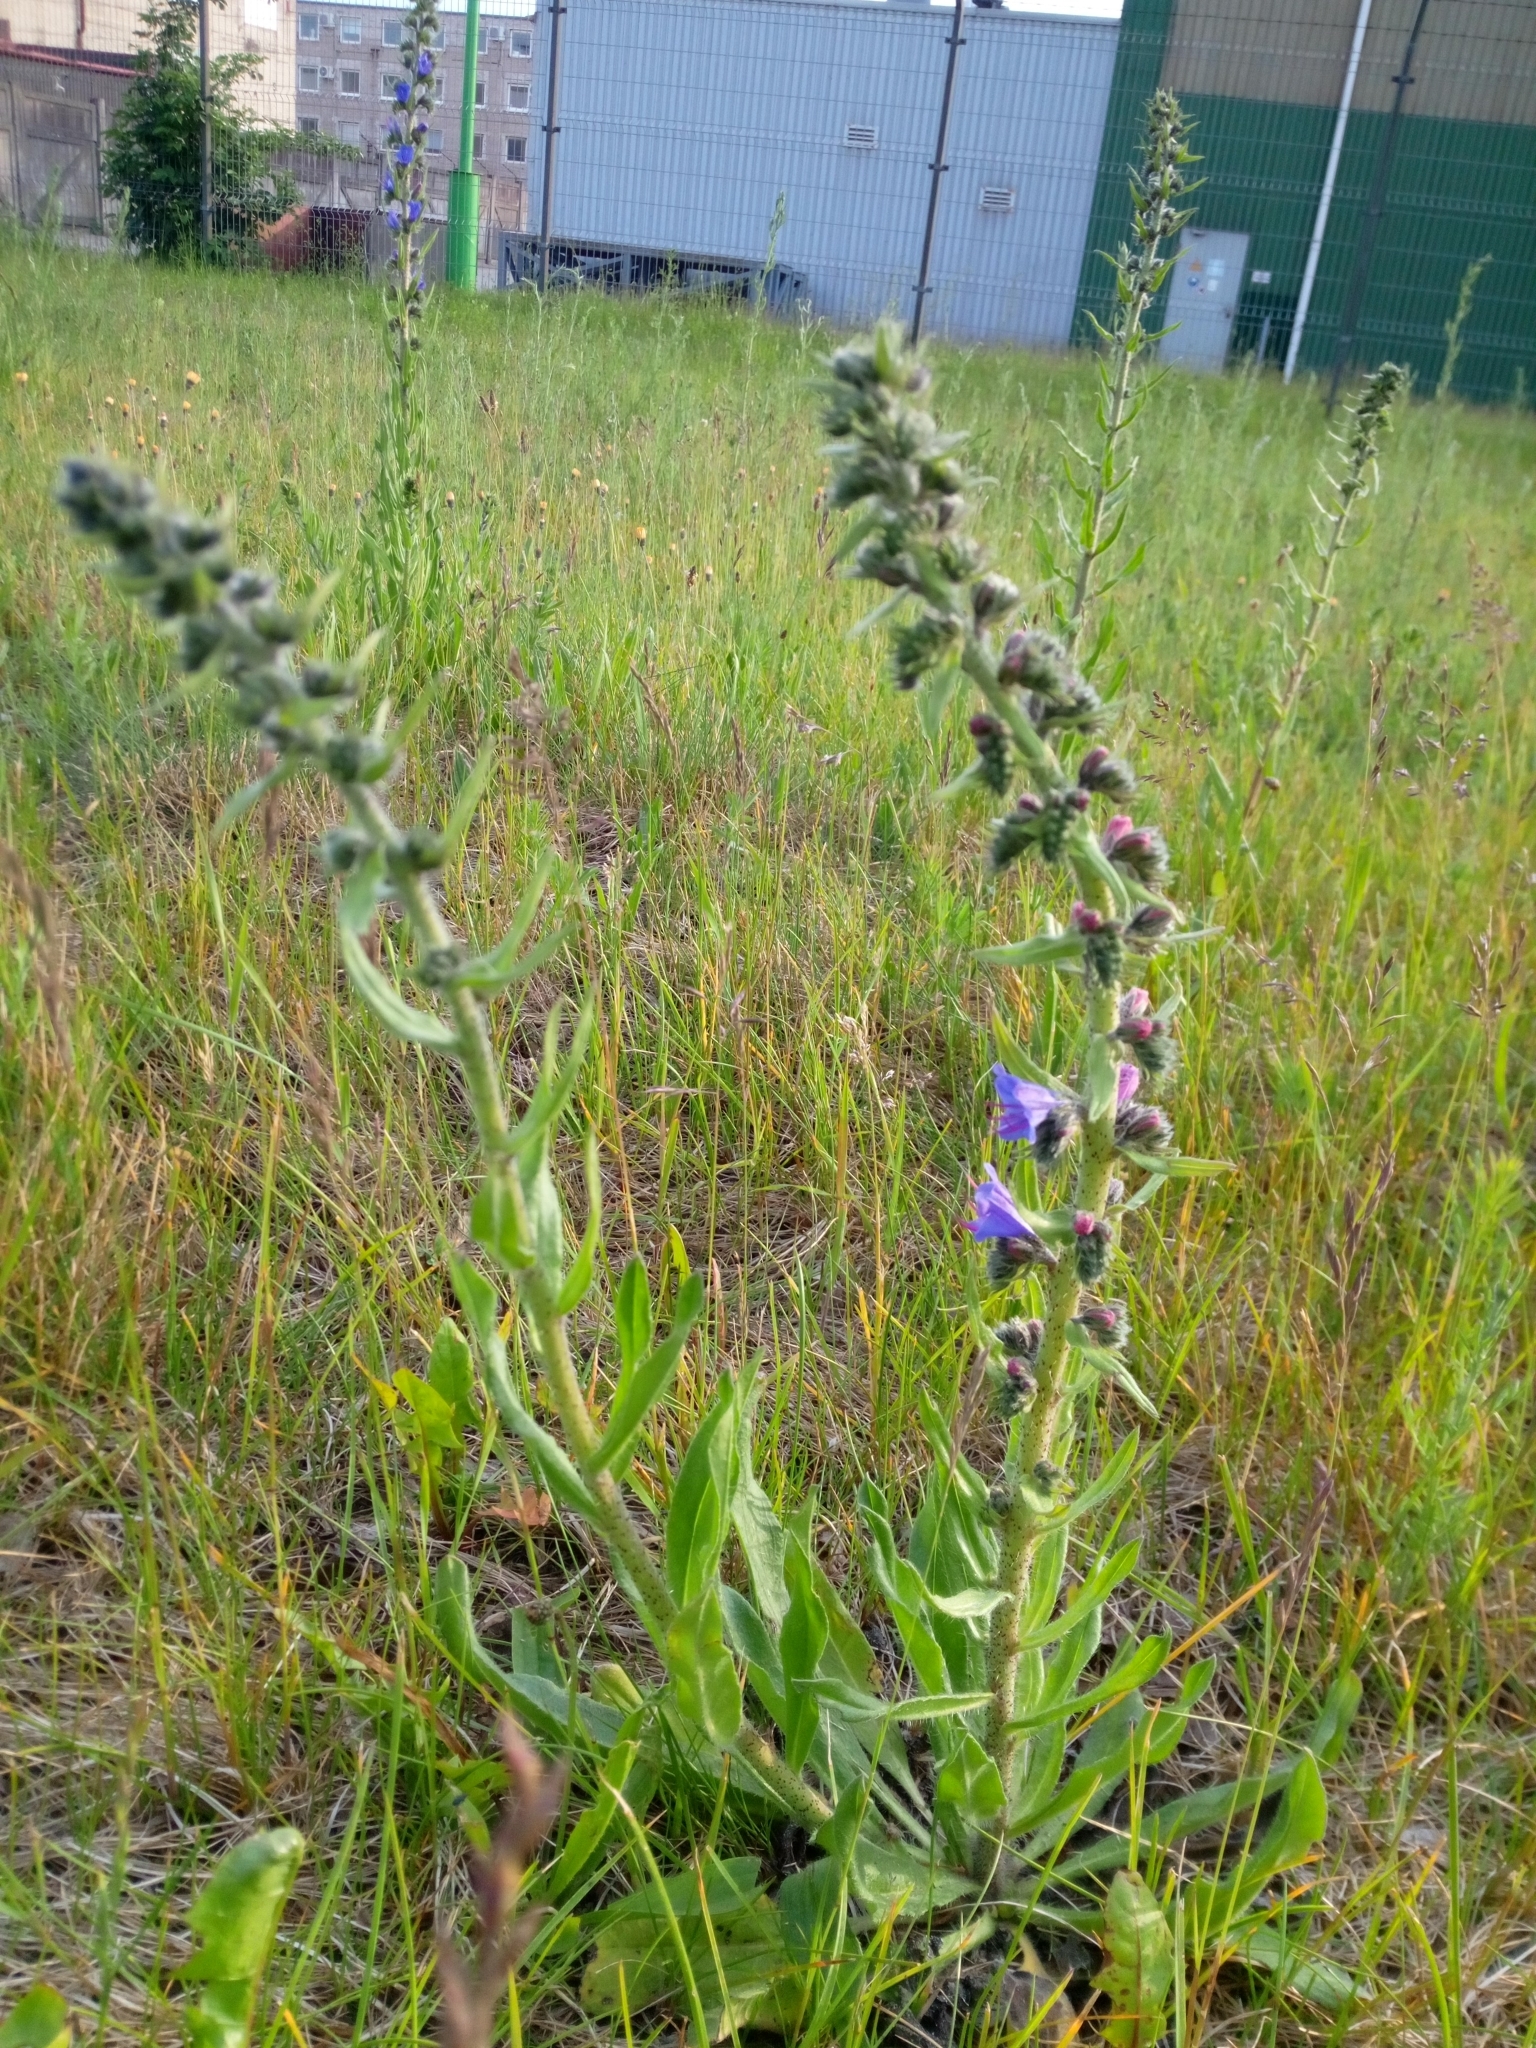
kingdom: Plantae
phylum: Tracheophyta
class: Magnoliopsida
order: Boraginales
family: Boraginaceae
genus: Echium
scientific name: Echium vulgare
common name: Common viper's bugloss
